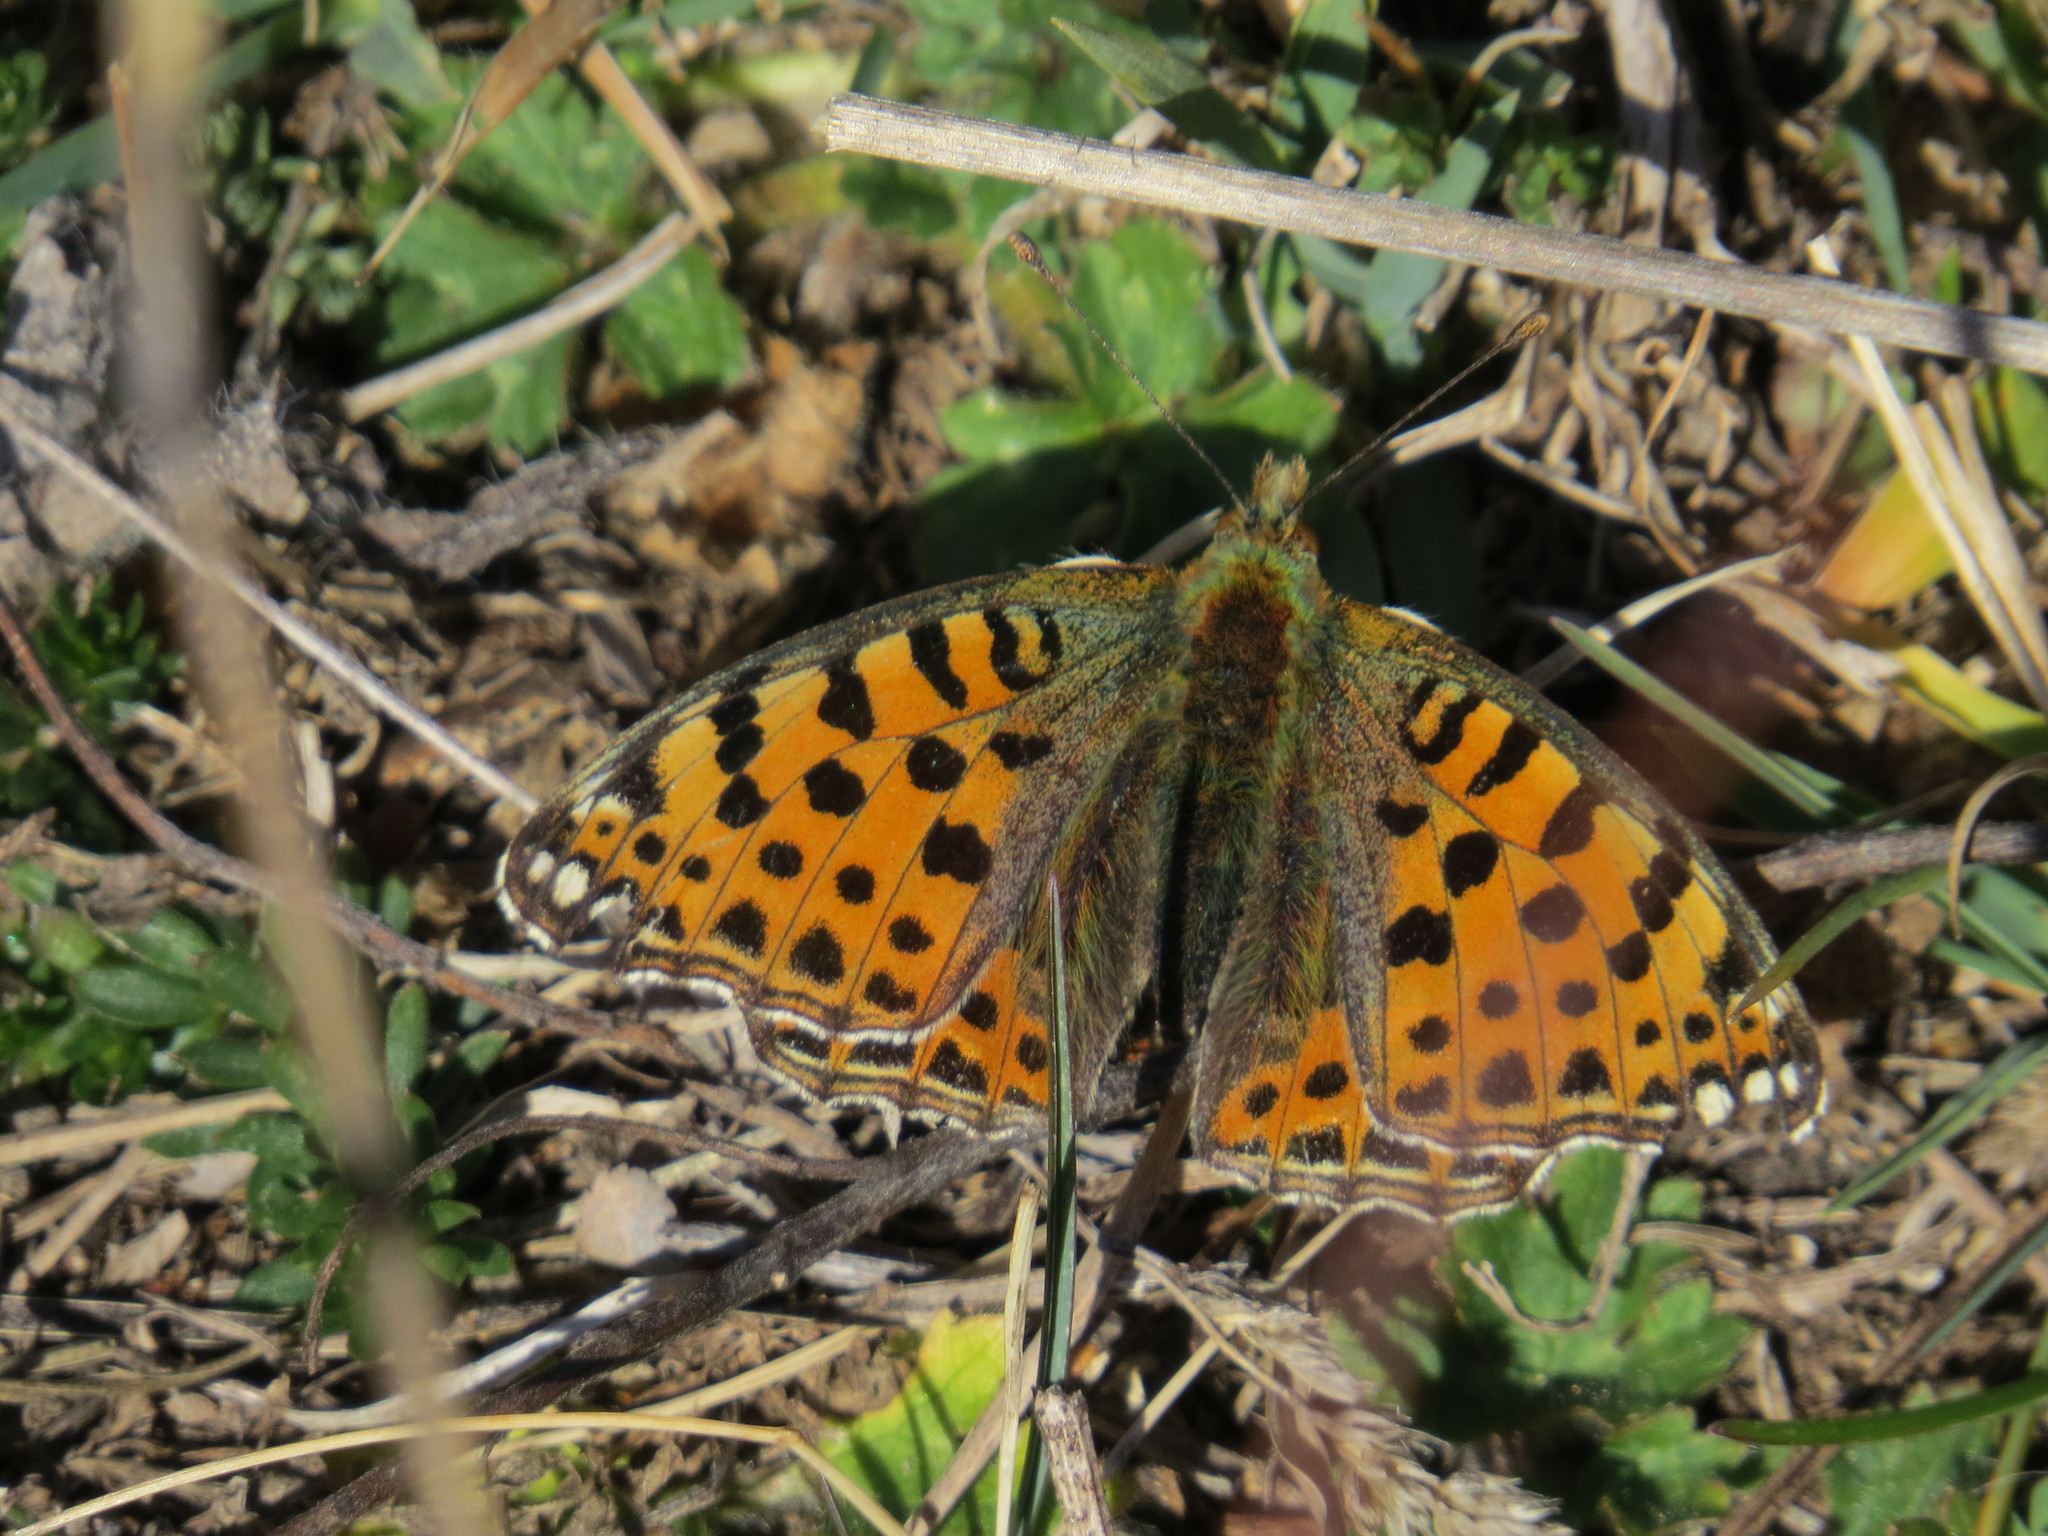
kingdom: Animalia
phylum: Arthropoda
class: Insecta
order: Lepidoptera
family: Nymphalidae
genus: Issoria
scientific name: Issoria lathonia
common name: Queen of spain fritillary
